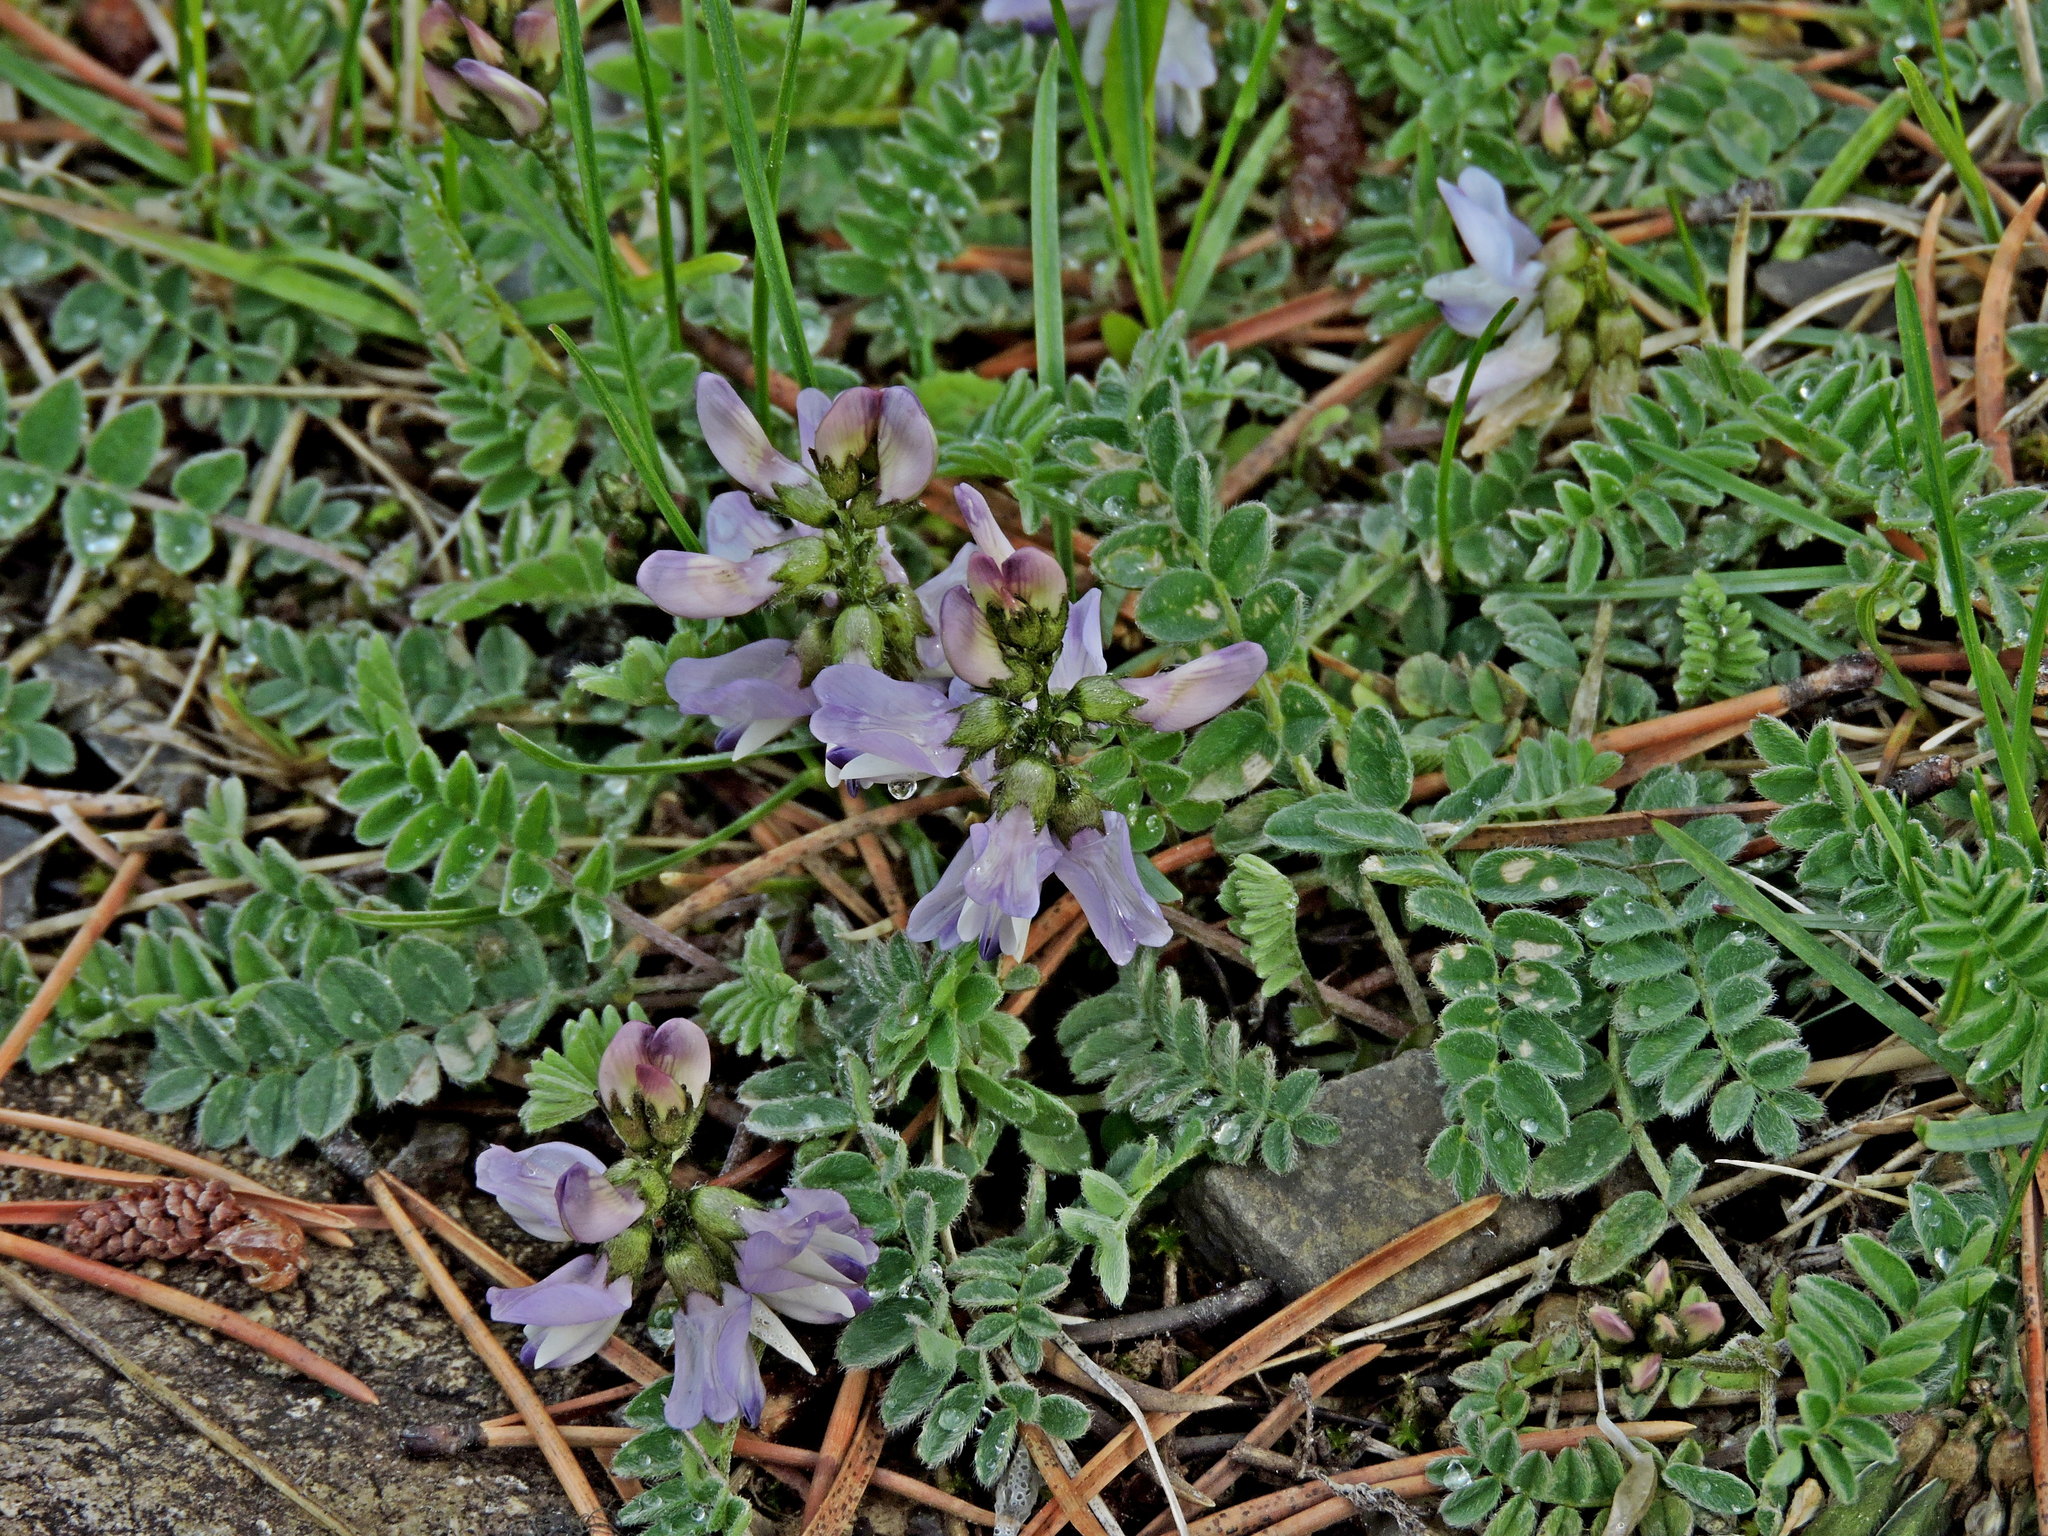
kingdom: Plantae
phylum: Tracheophyta
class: Magnoliopsida
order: Fabales
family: Fabaceae
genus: Astragalus
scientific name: Astragalus alpinus
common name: Alpine milk-vetch
